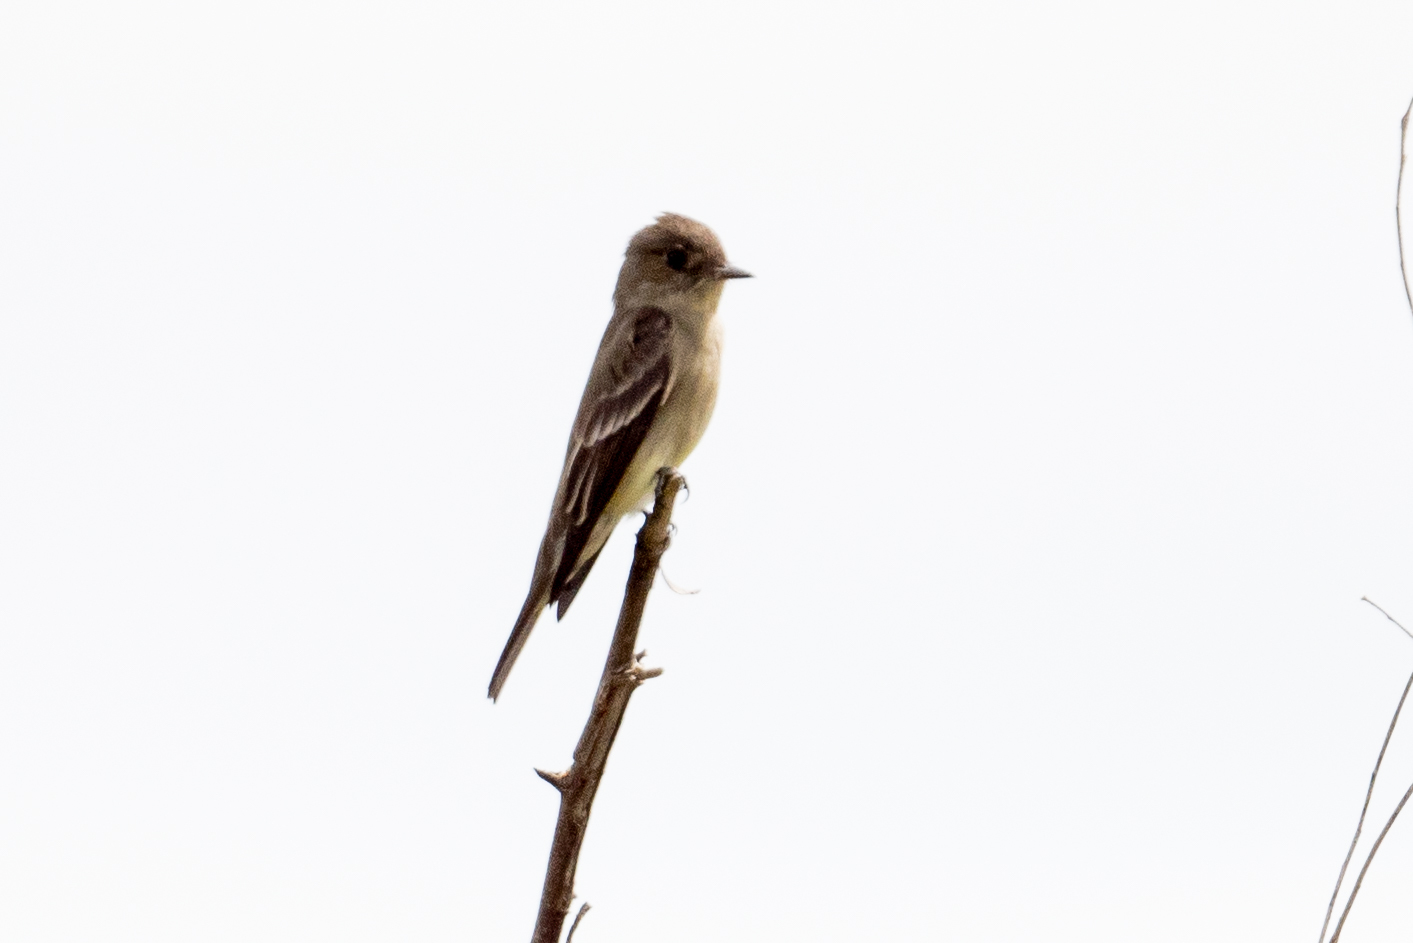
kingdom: Animalia
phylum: Chordata
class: Aves
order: Passeriformes
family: Tyrannidae
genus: Contopus
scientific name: Contopus sordidulus
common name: Western wood-pewee
